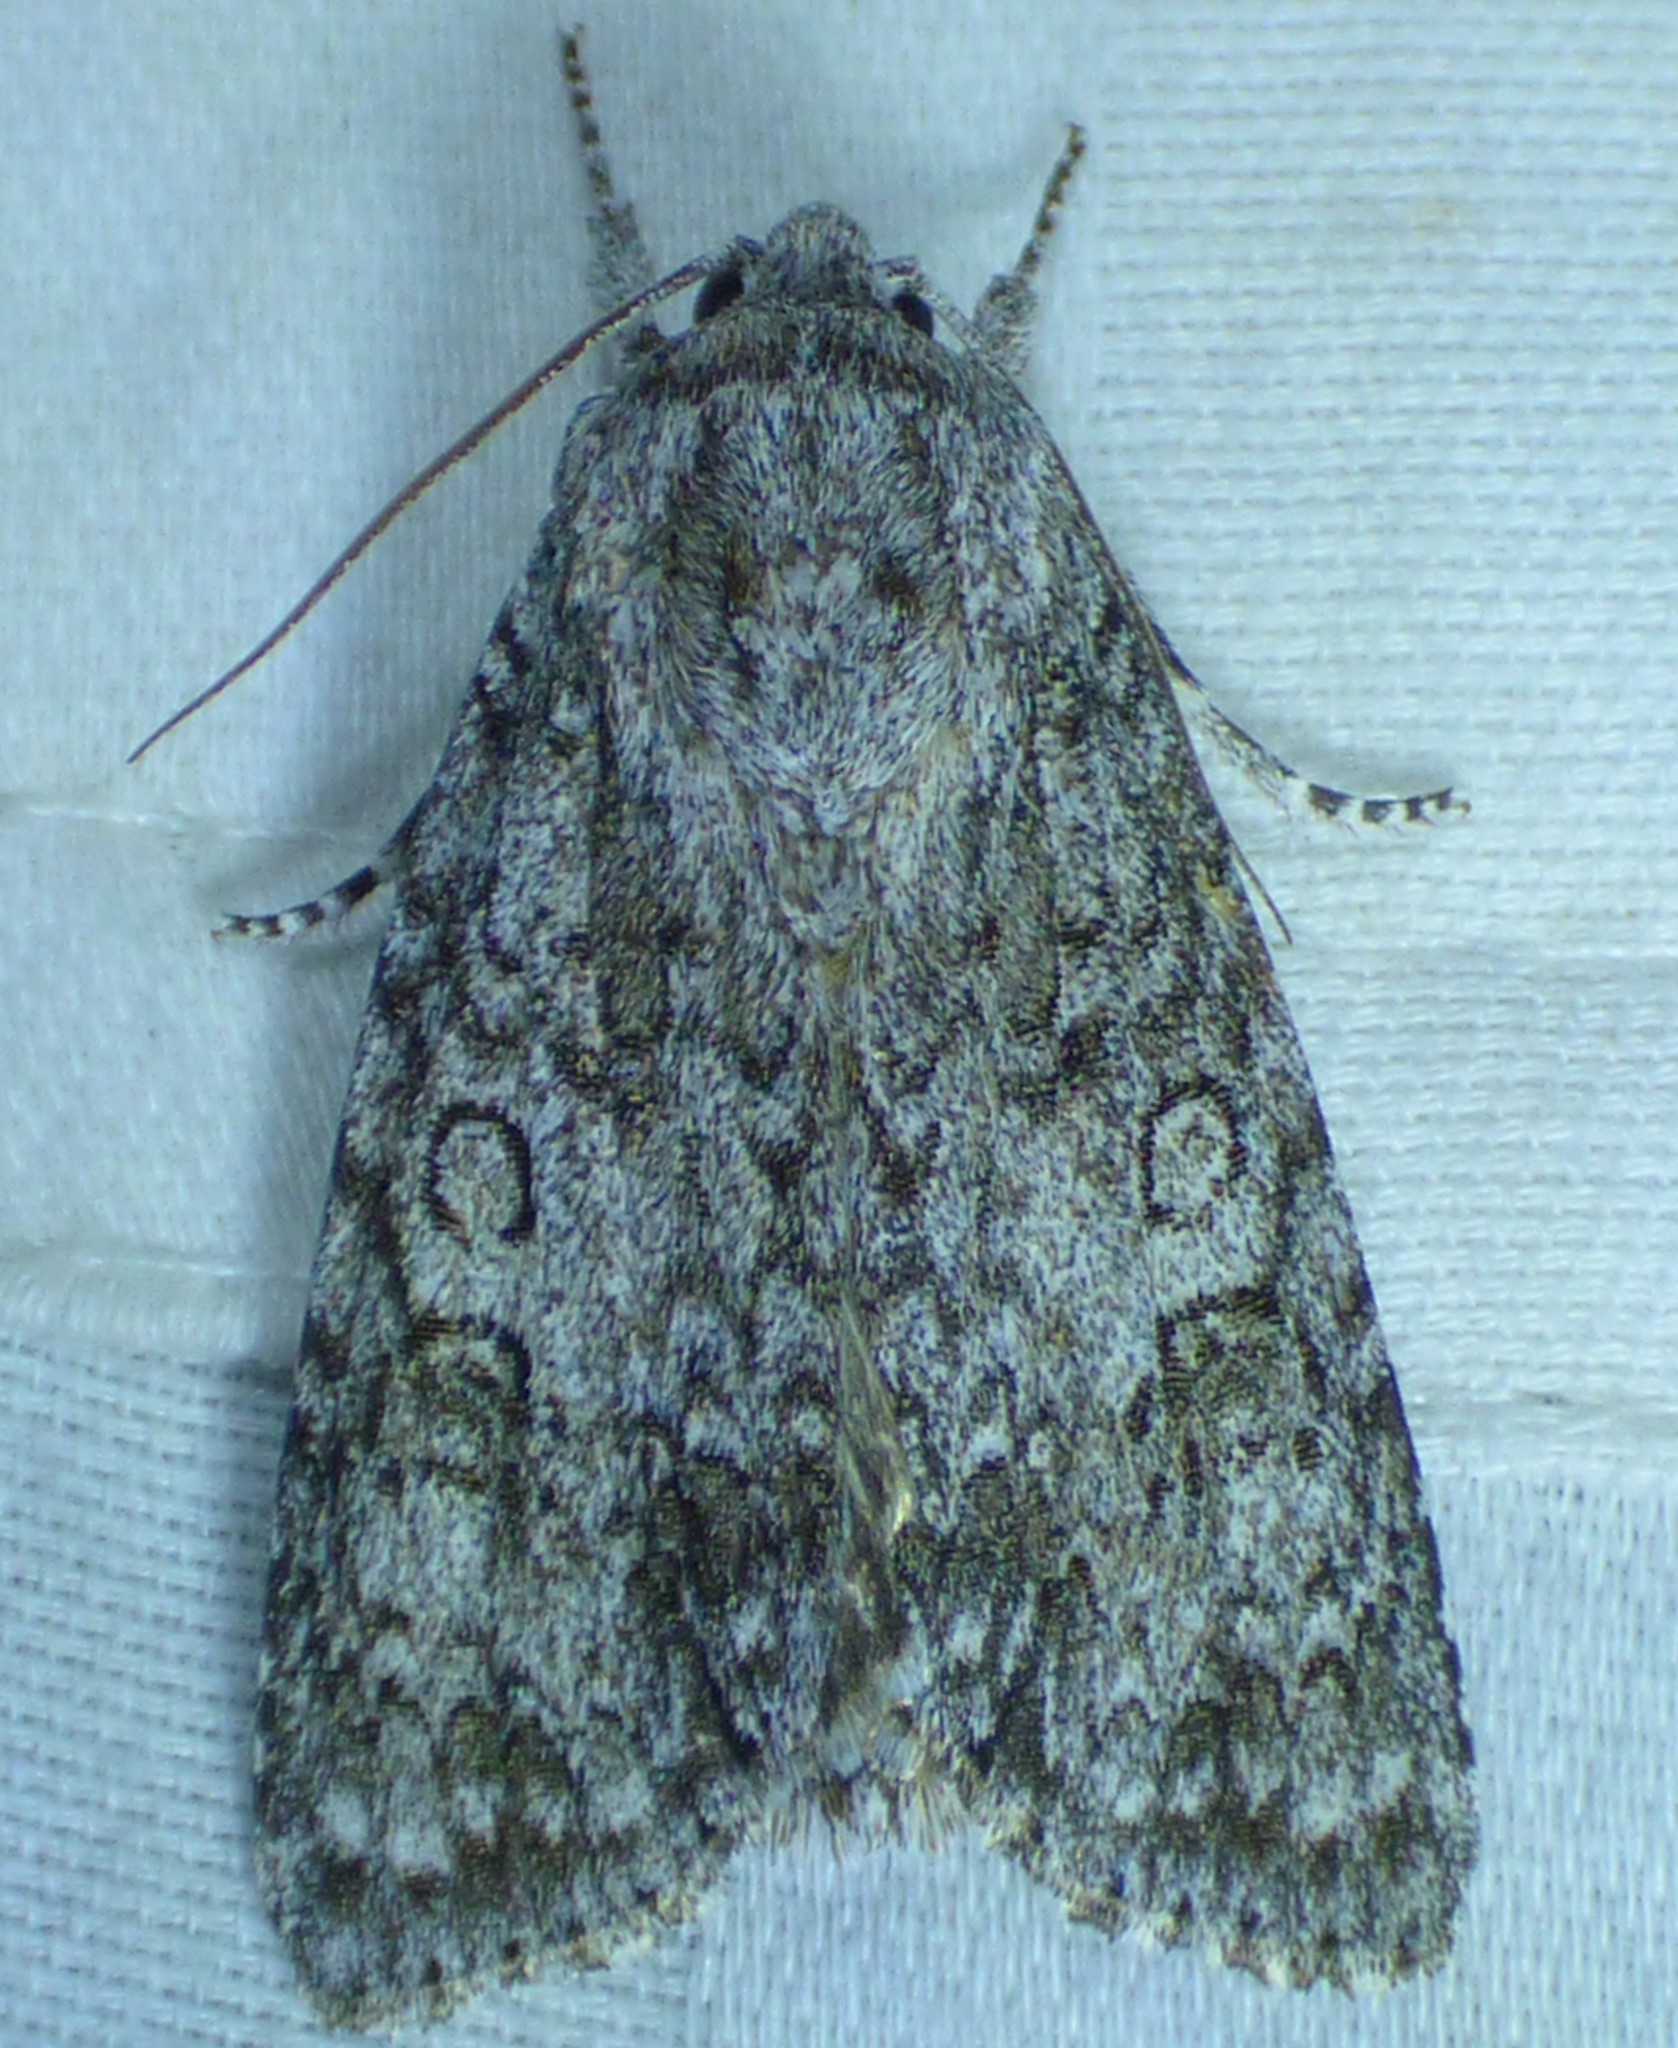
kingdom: Animalia
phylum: Arthropoda
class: Insecta
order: Lepidoptera
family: Noctuidae
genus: Acronicta
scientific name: Acronicta impleta
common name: Powdered dagger
